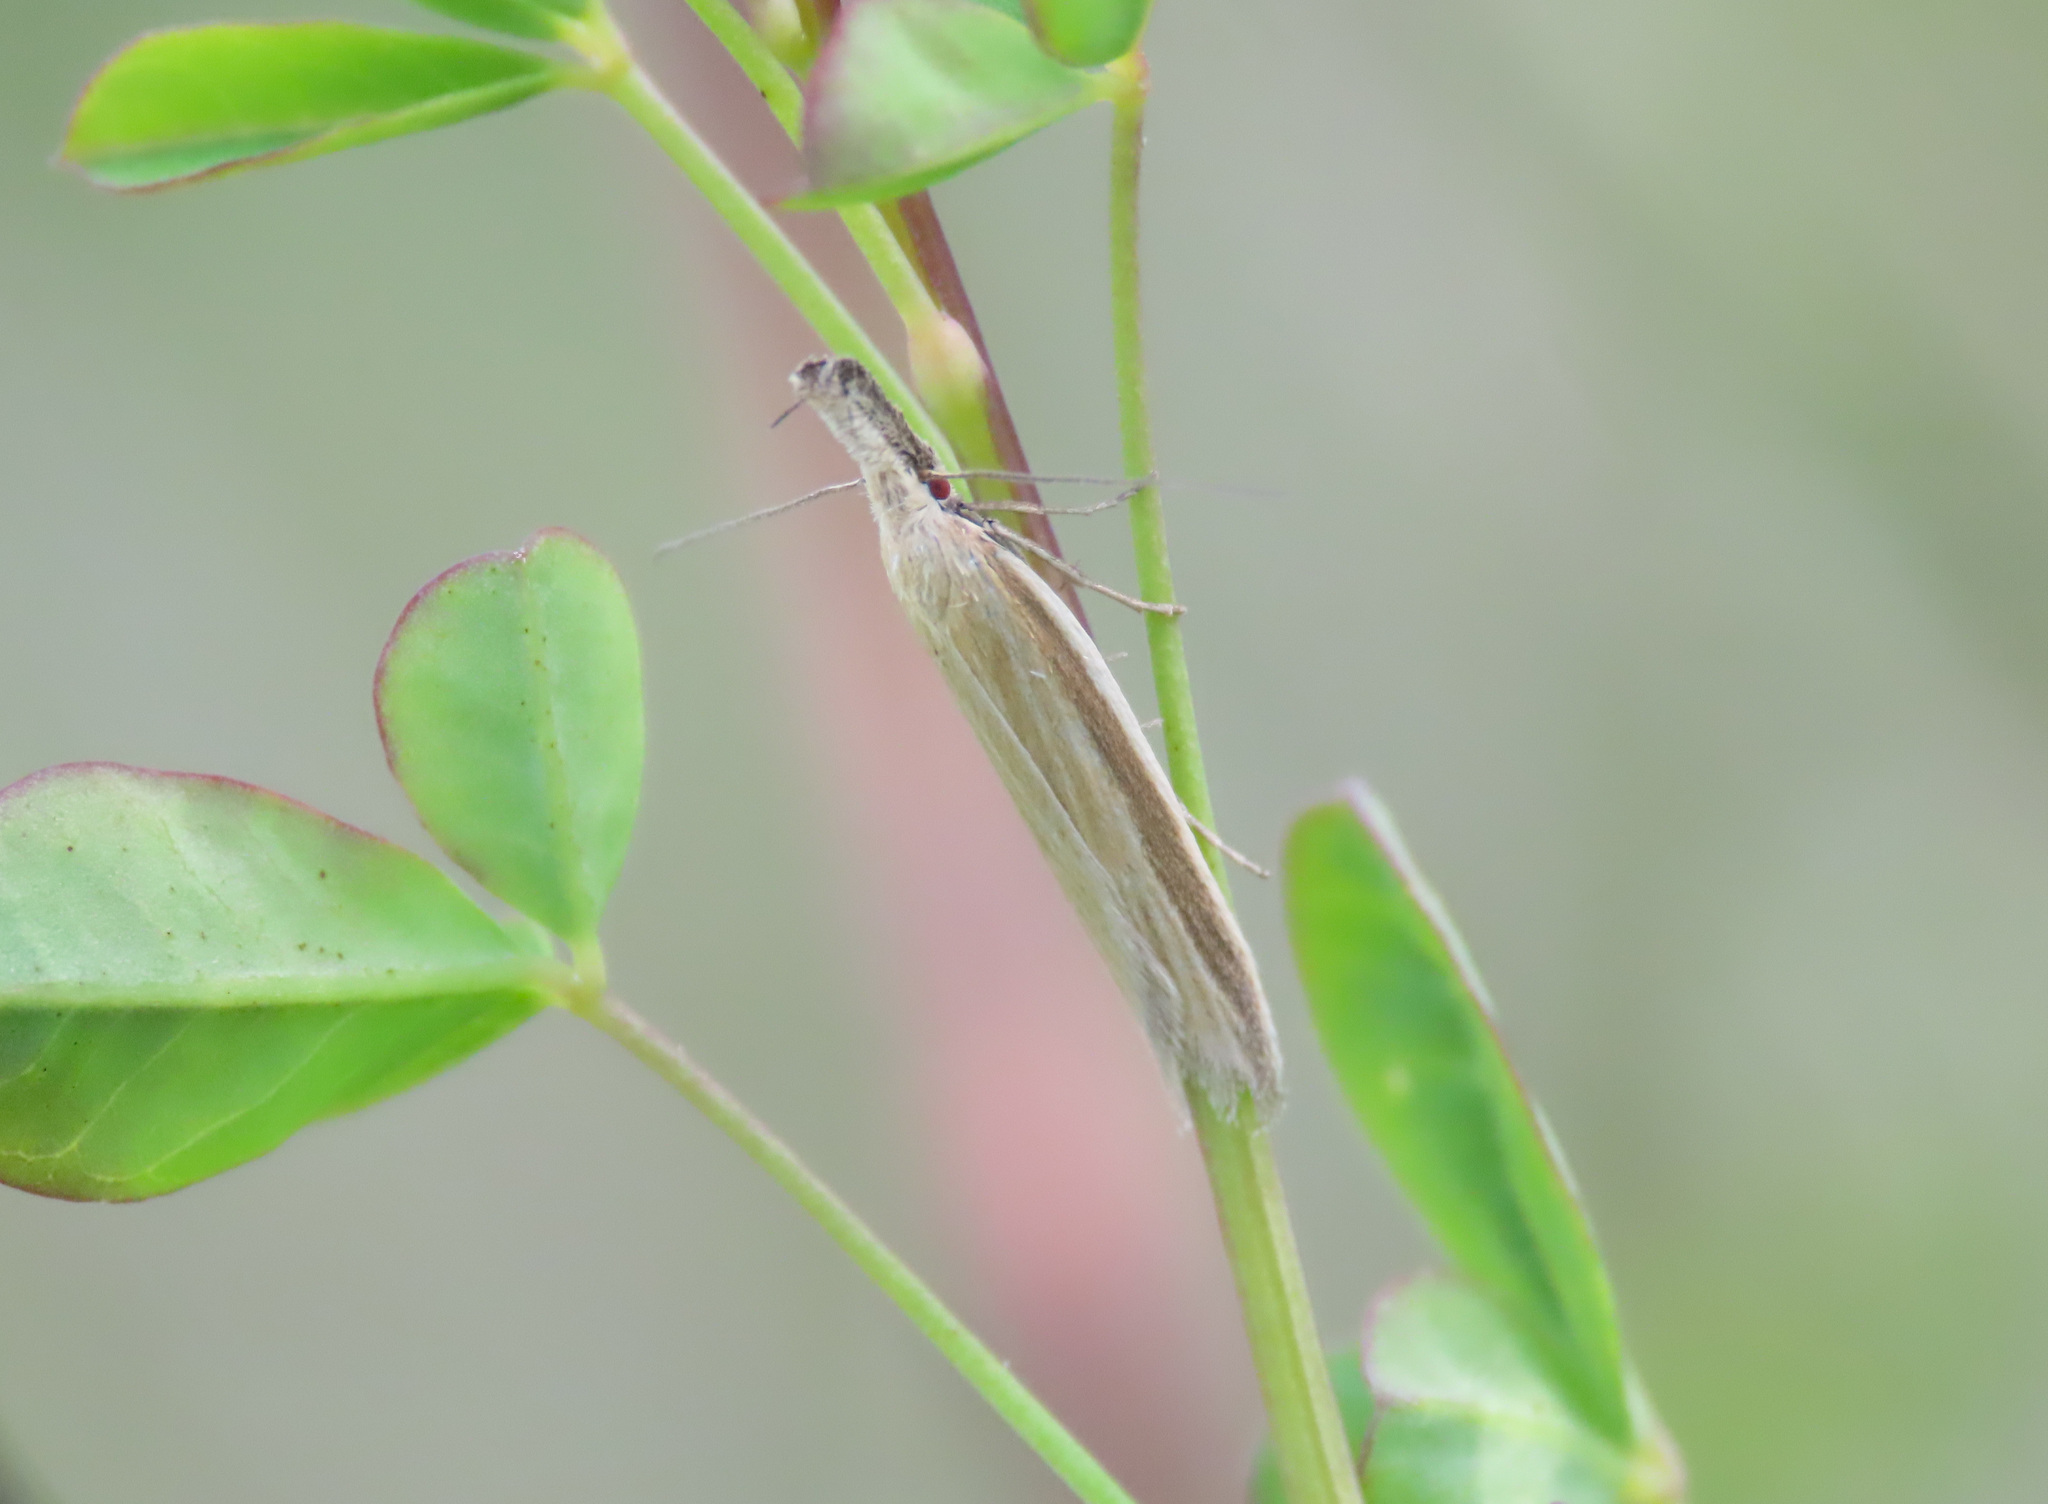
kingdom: Animalia
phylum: Arthropoda
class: Insecta
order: Lepidoptera
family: Oecophoridae
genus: Pleurota
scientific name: Pleurota pungitiella
